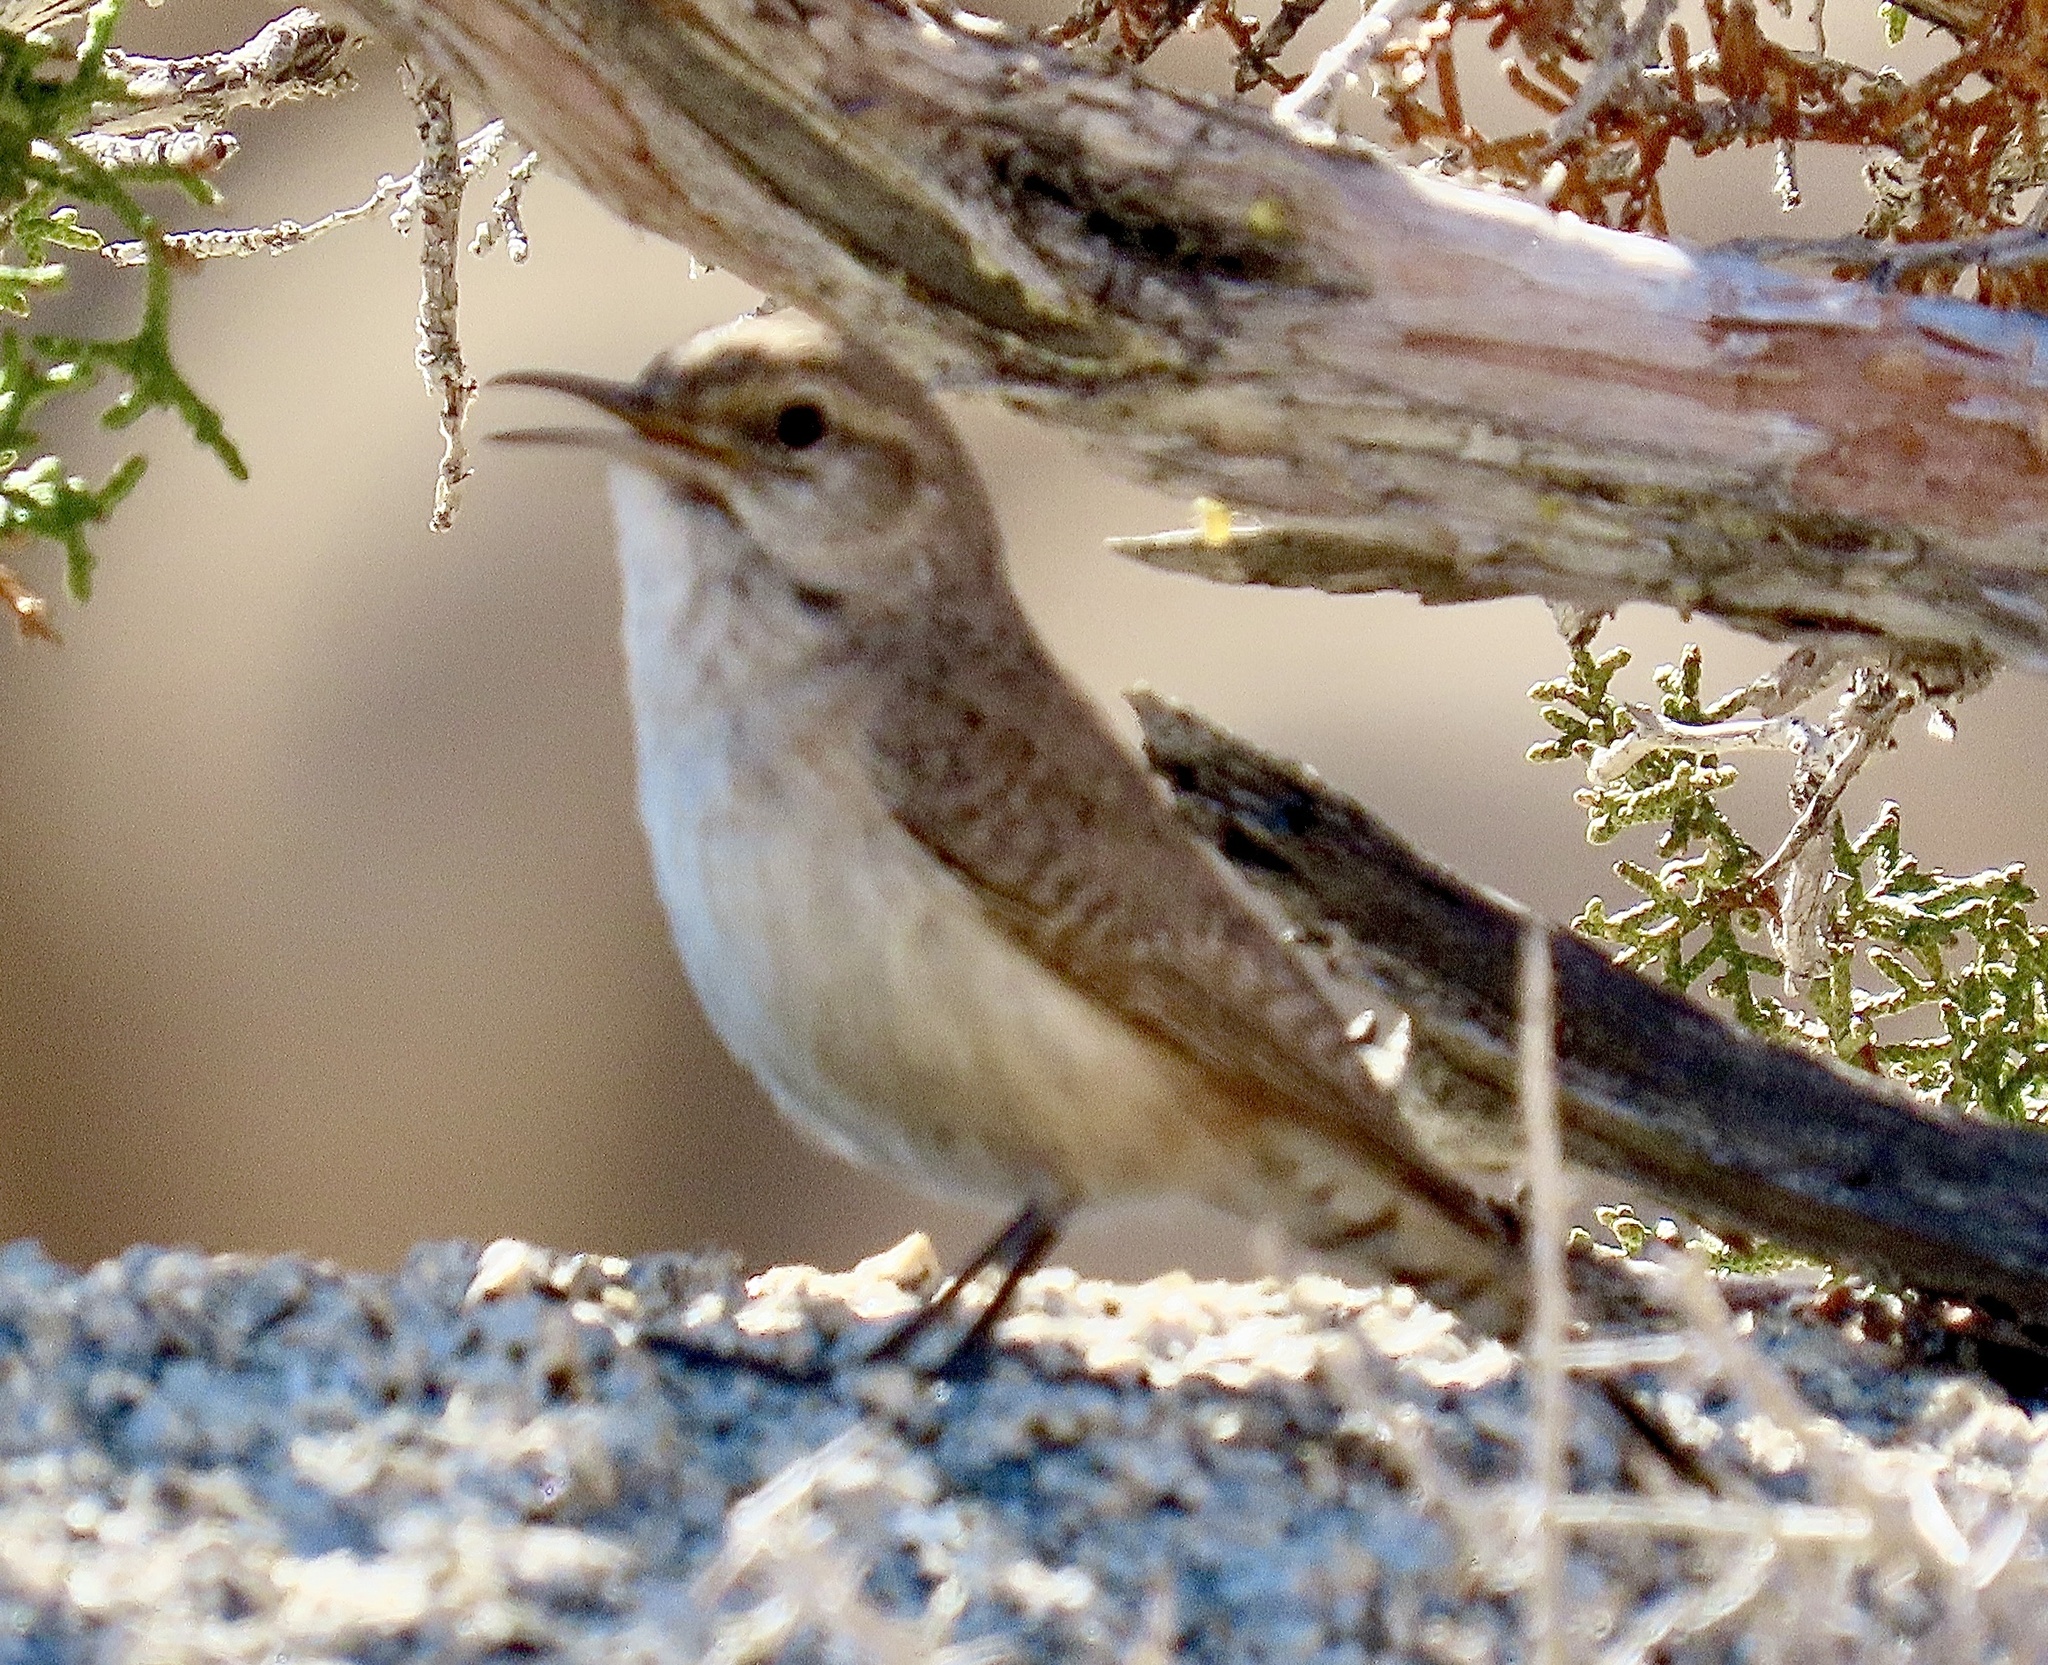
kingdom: Animalia
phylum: Chordata
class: Aves
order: Passeriformes
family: Troglodytidae
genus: Salpinctes
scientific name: Salpinctes obsoletus
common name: Rock wren
